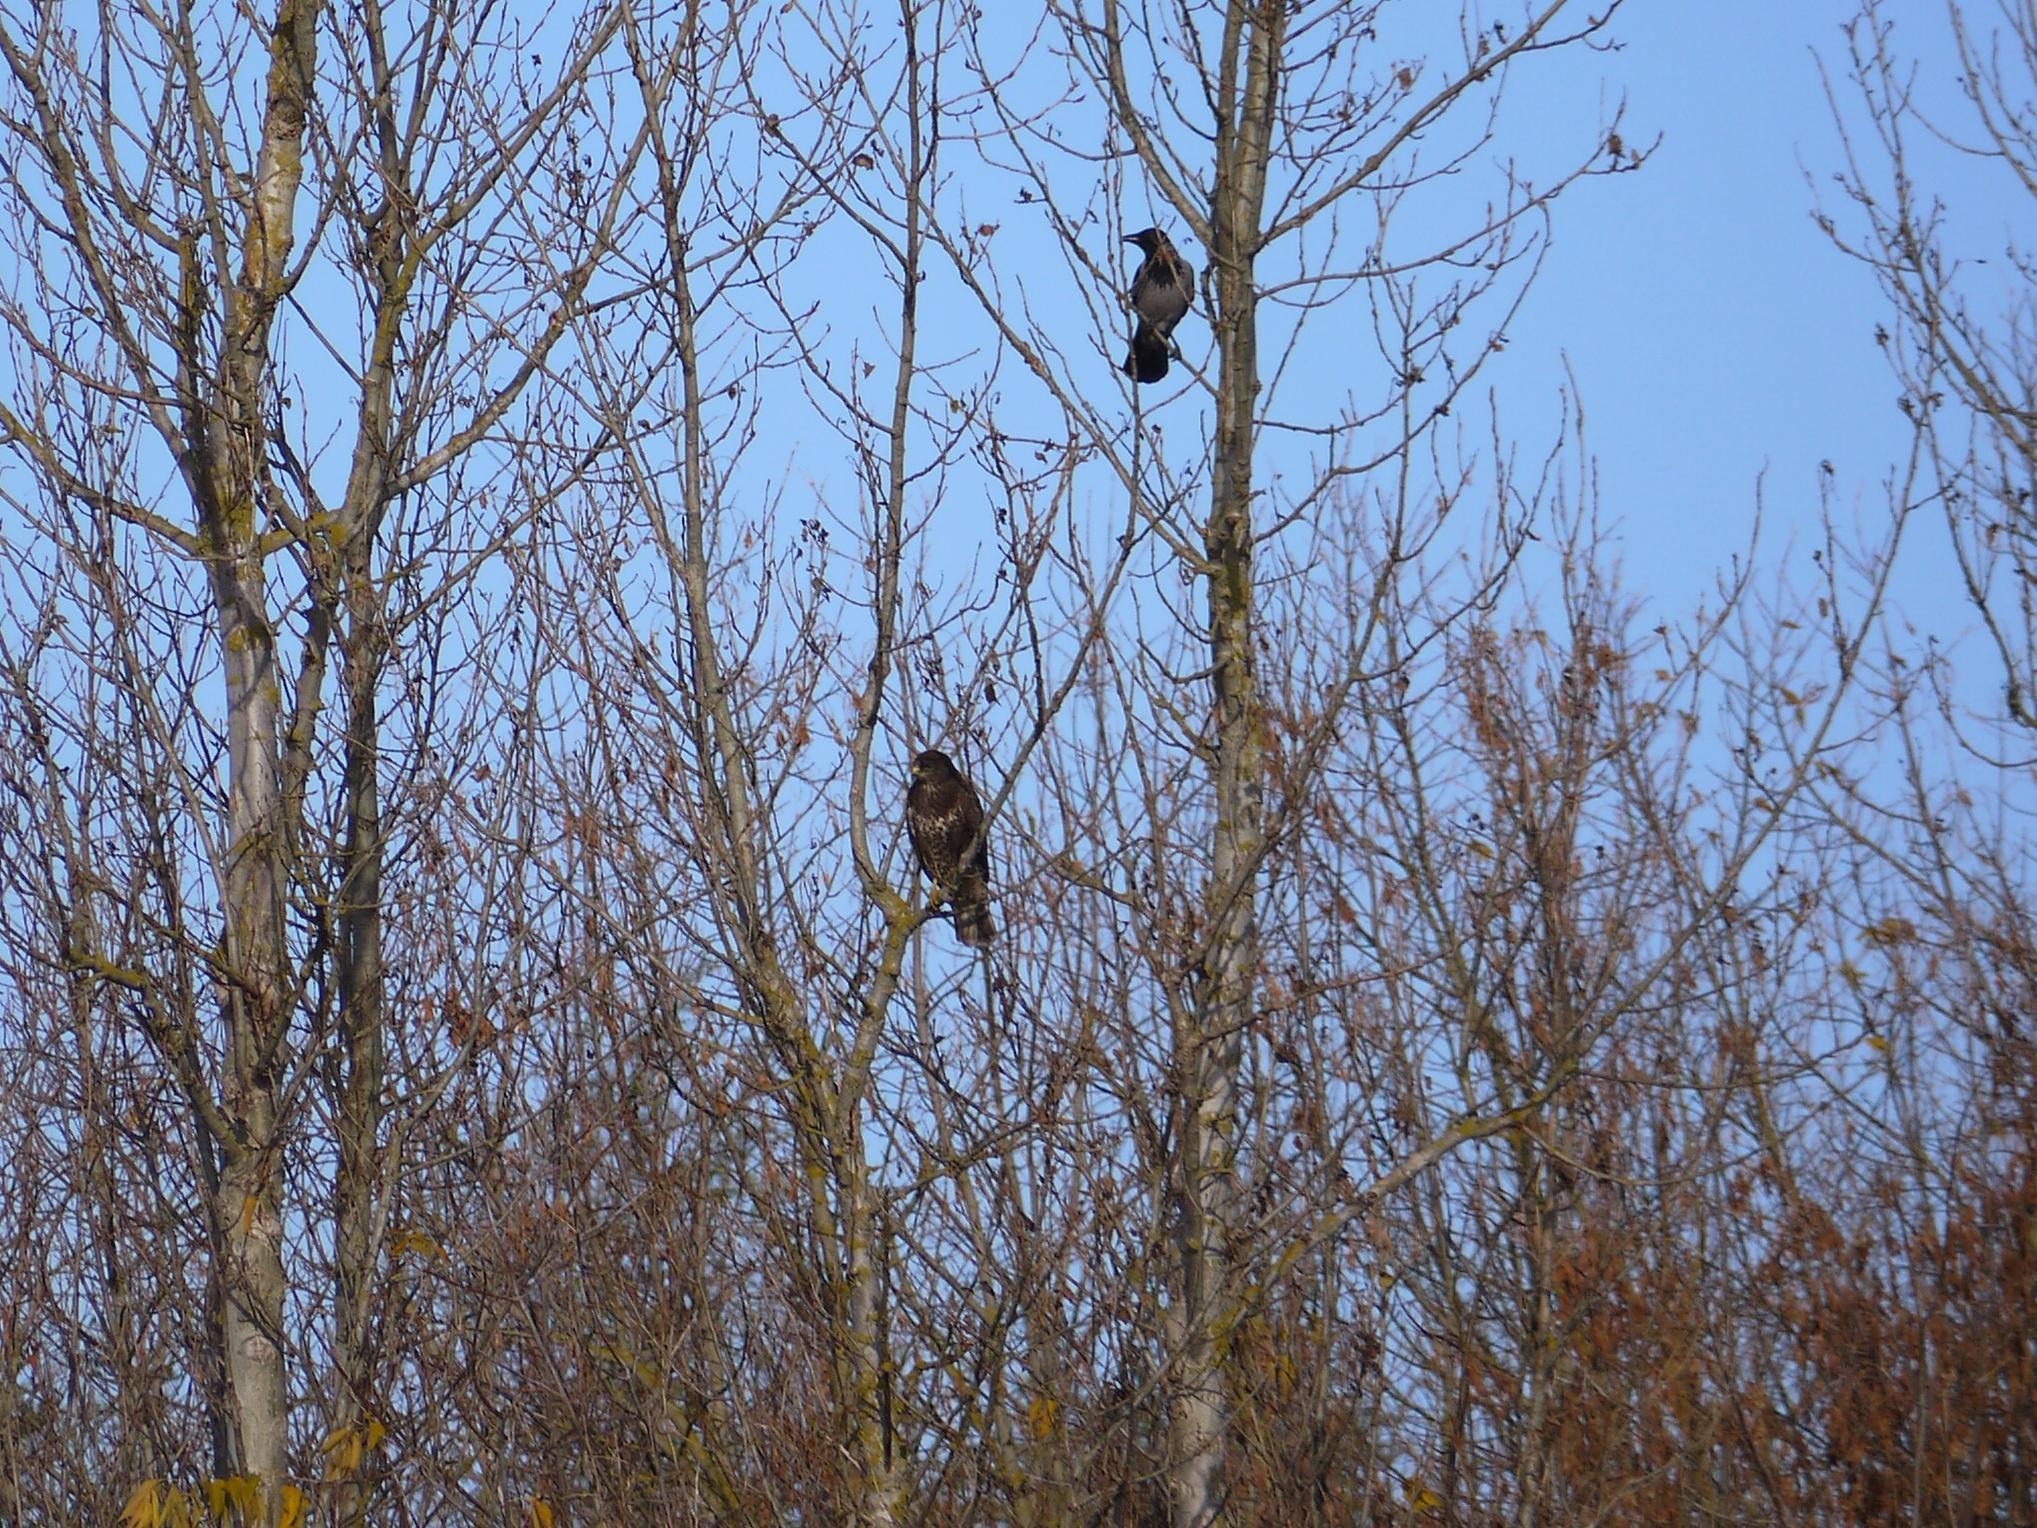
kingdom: Animalia
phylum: Chordata
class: Aves
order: Accipitriformes
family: Accipitridae
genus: Buteo
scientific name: Buteo buteo
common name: Common buzzard
